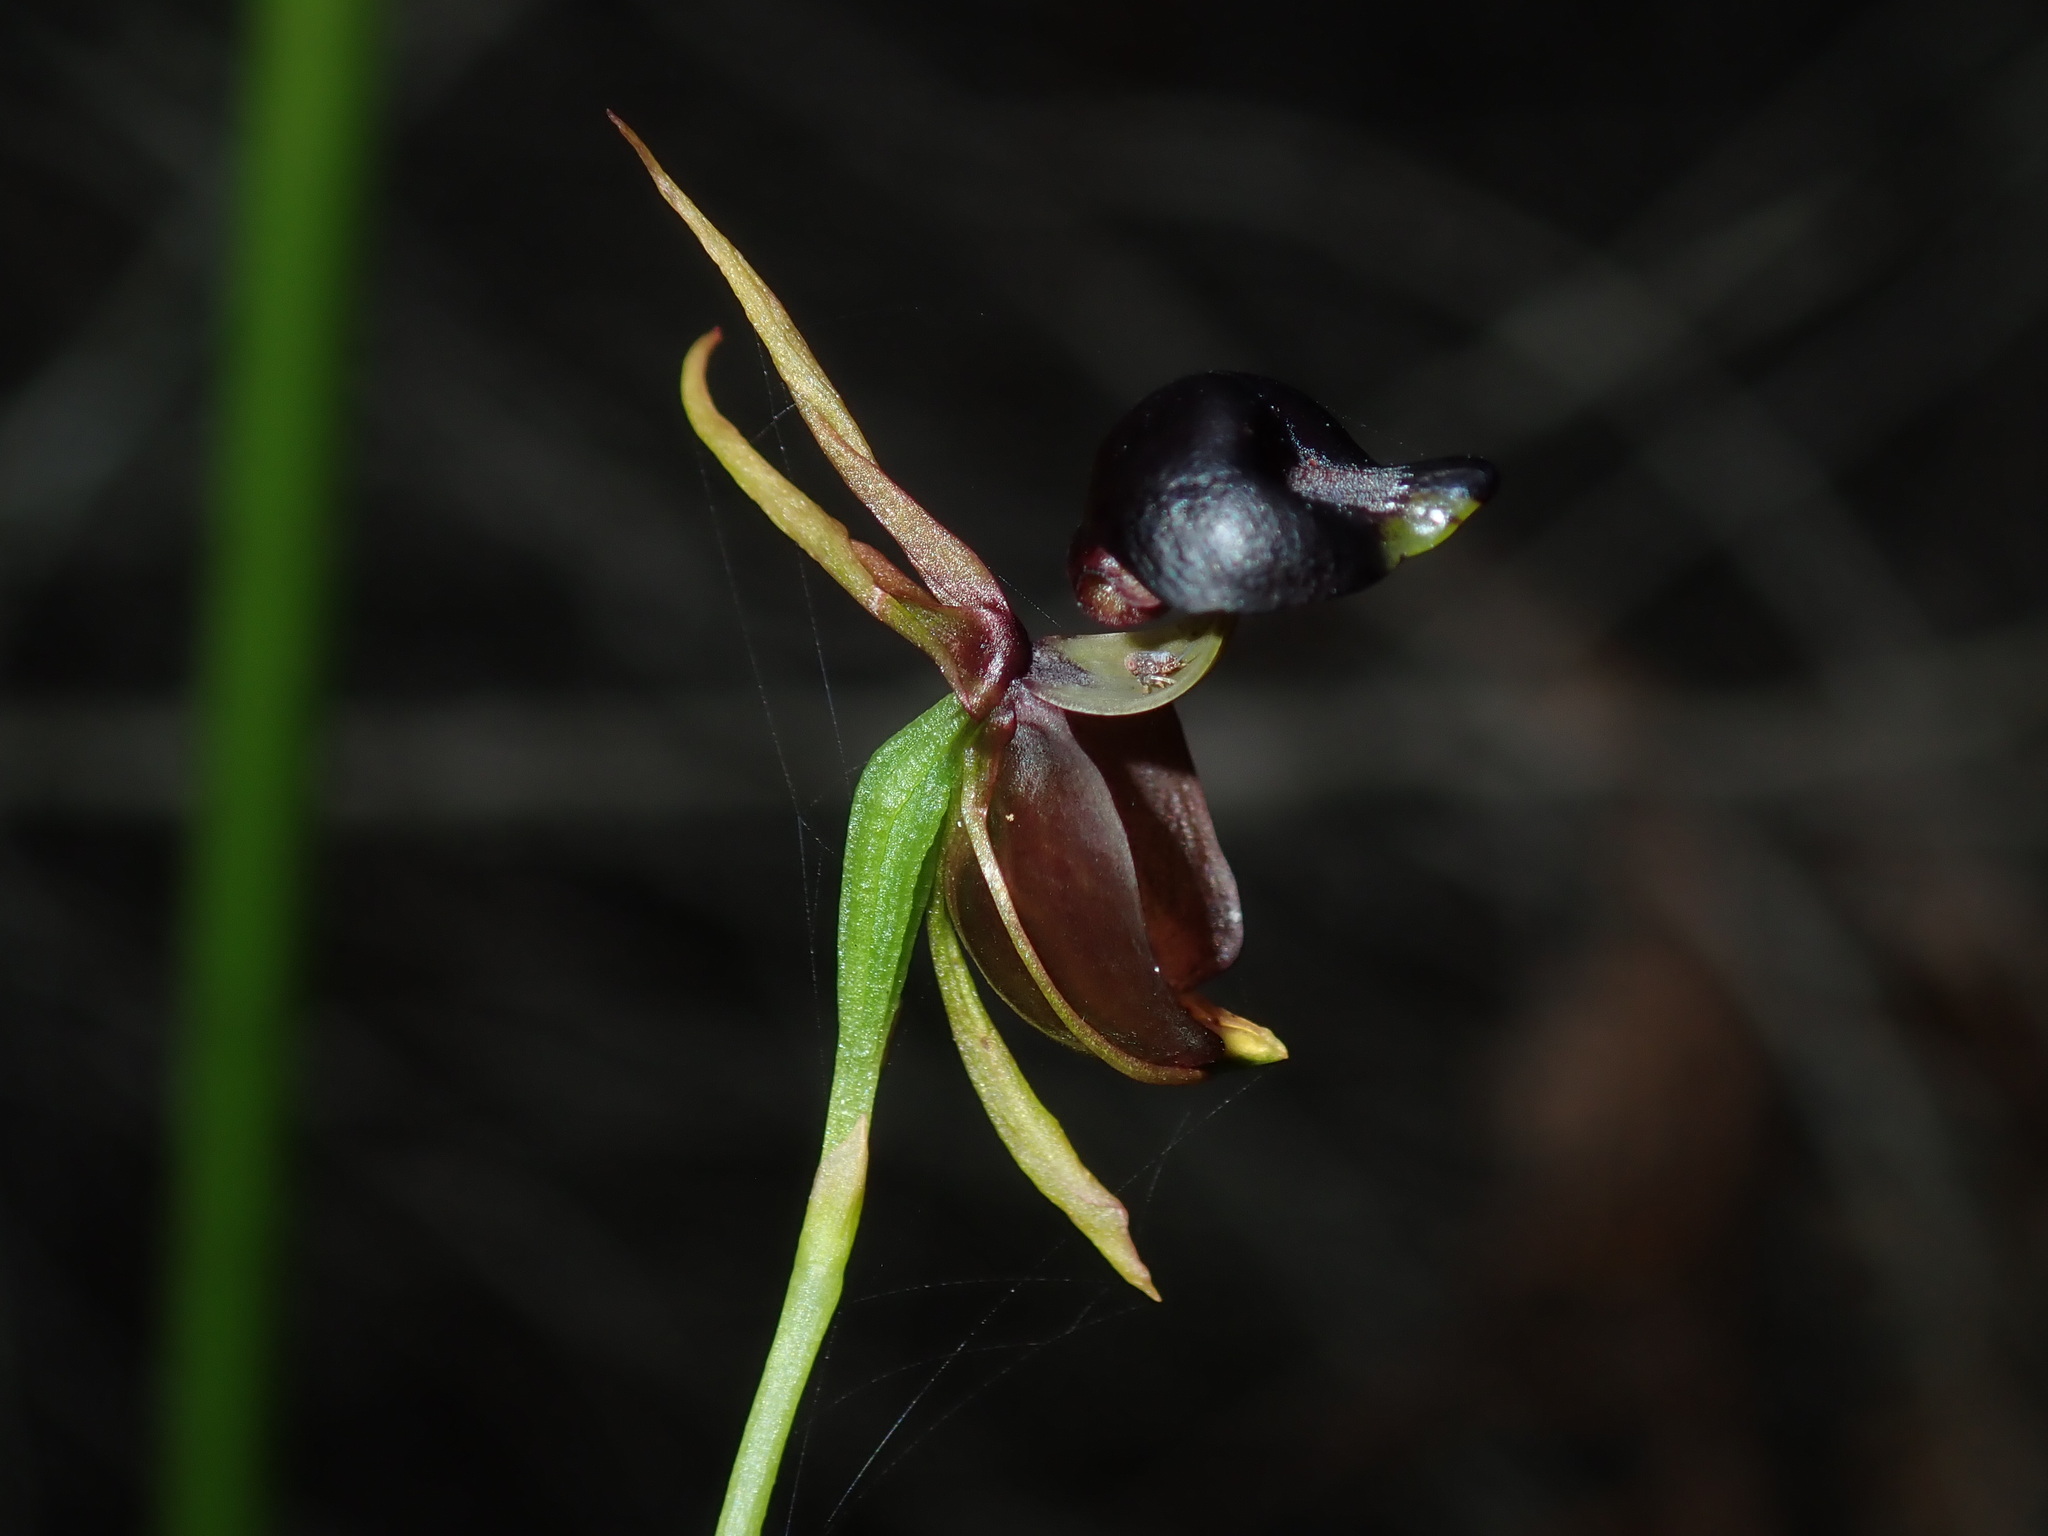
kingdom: Plantae
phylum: Tracheophyta
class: Liliopsida
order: Asparagales
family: Orchidaceae
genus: Caleana
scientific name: Caleana major
